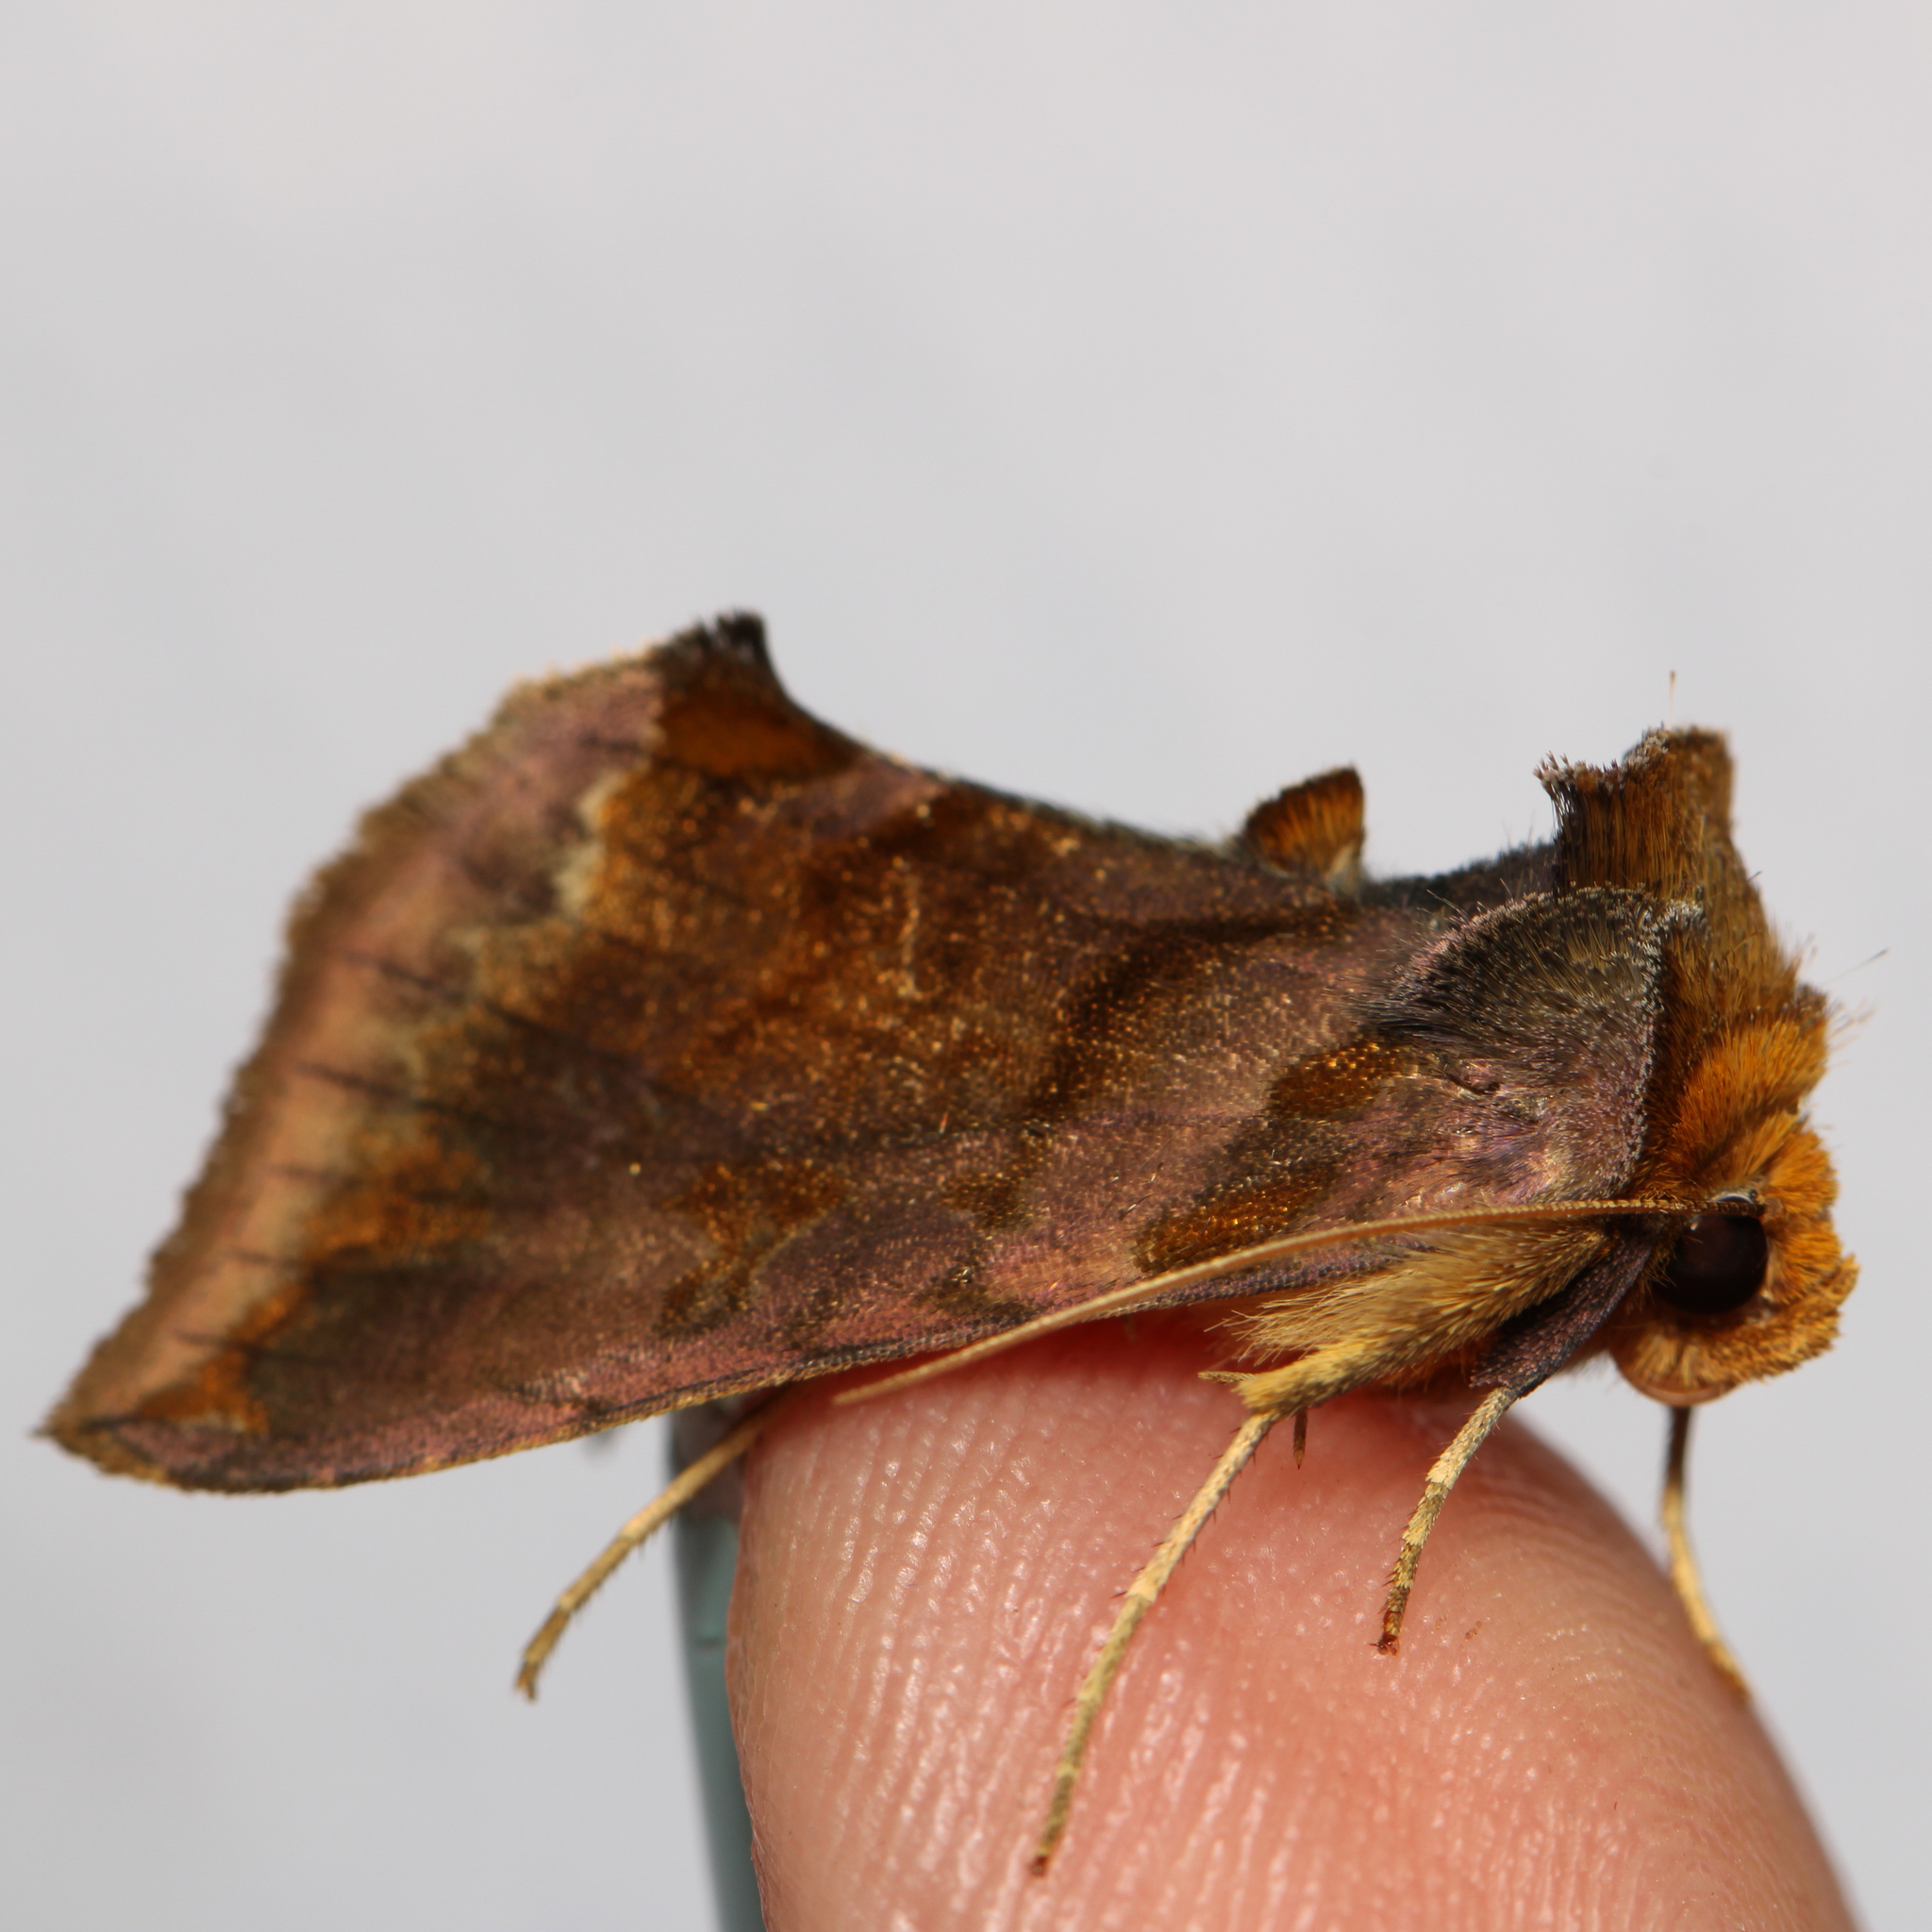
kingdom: Animalia
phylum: Arthropoda
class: Insecta
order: Lepidoptera
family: Noctuidae
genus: Allagrapha
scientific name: Allagrapha aerea
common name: Unspotted looper moth
